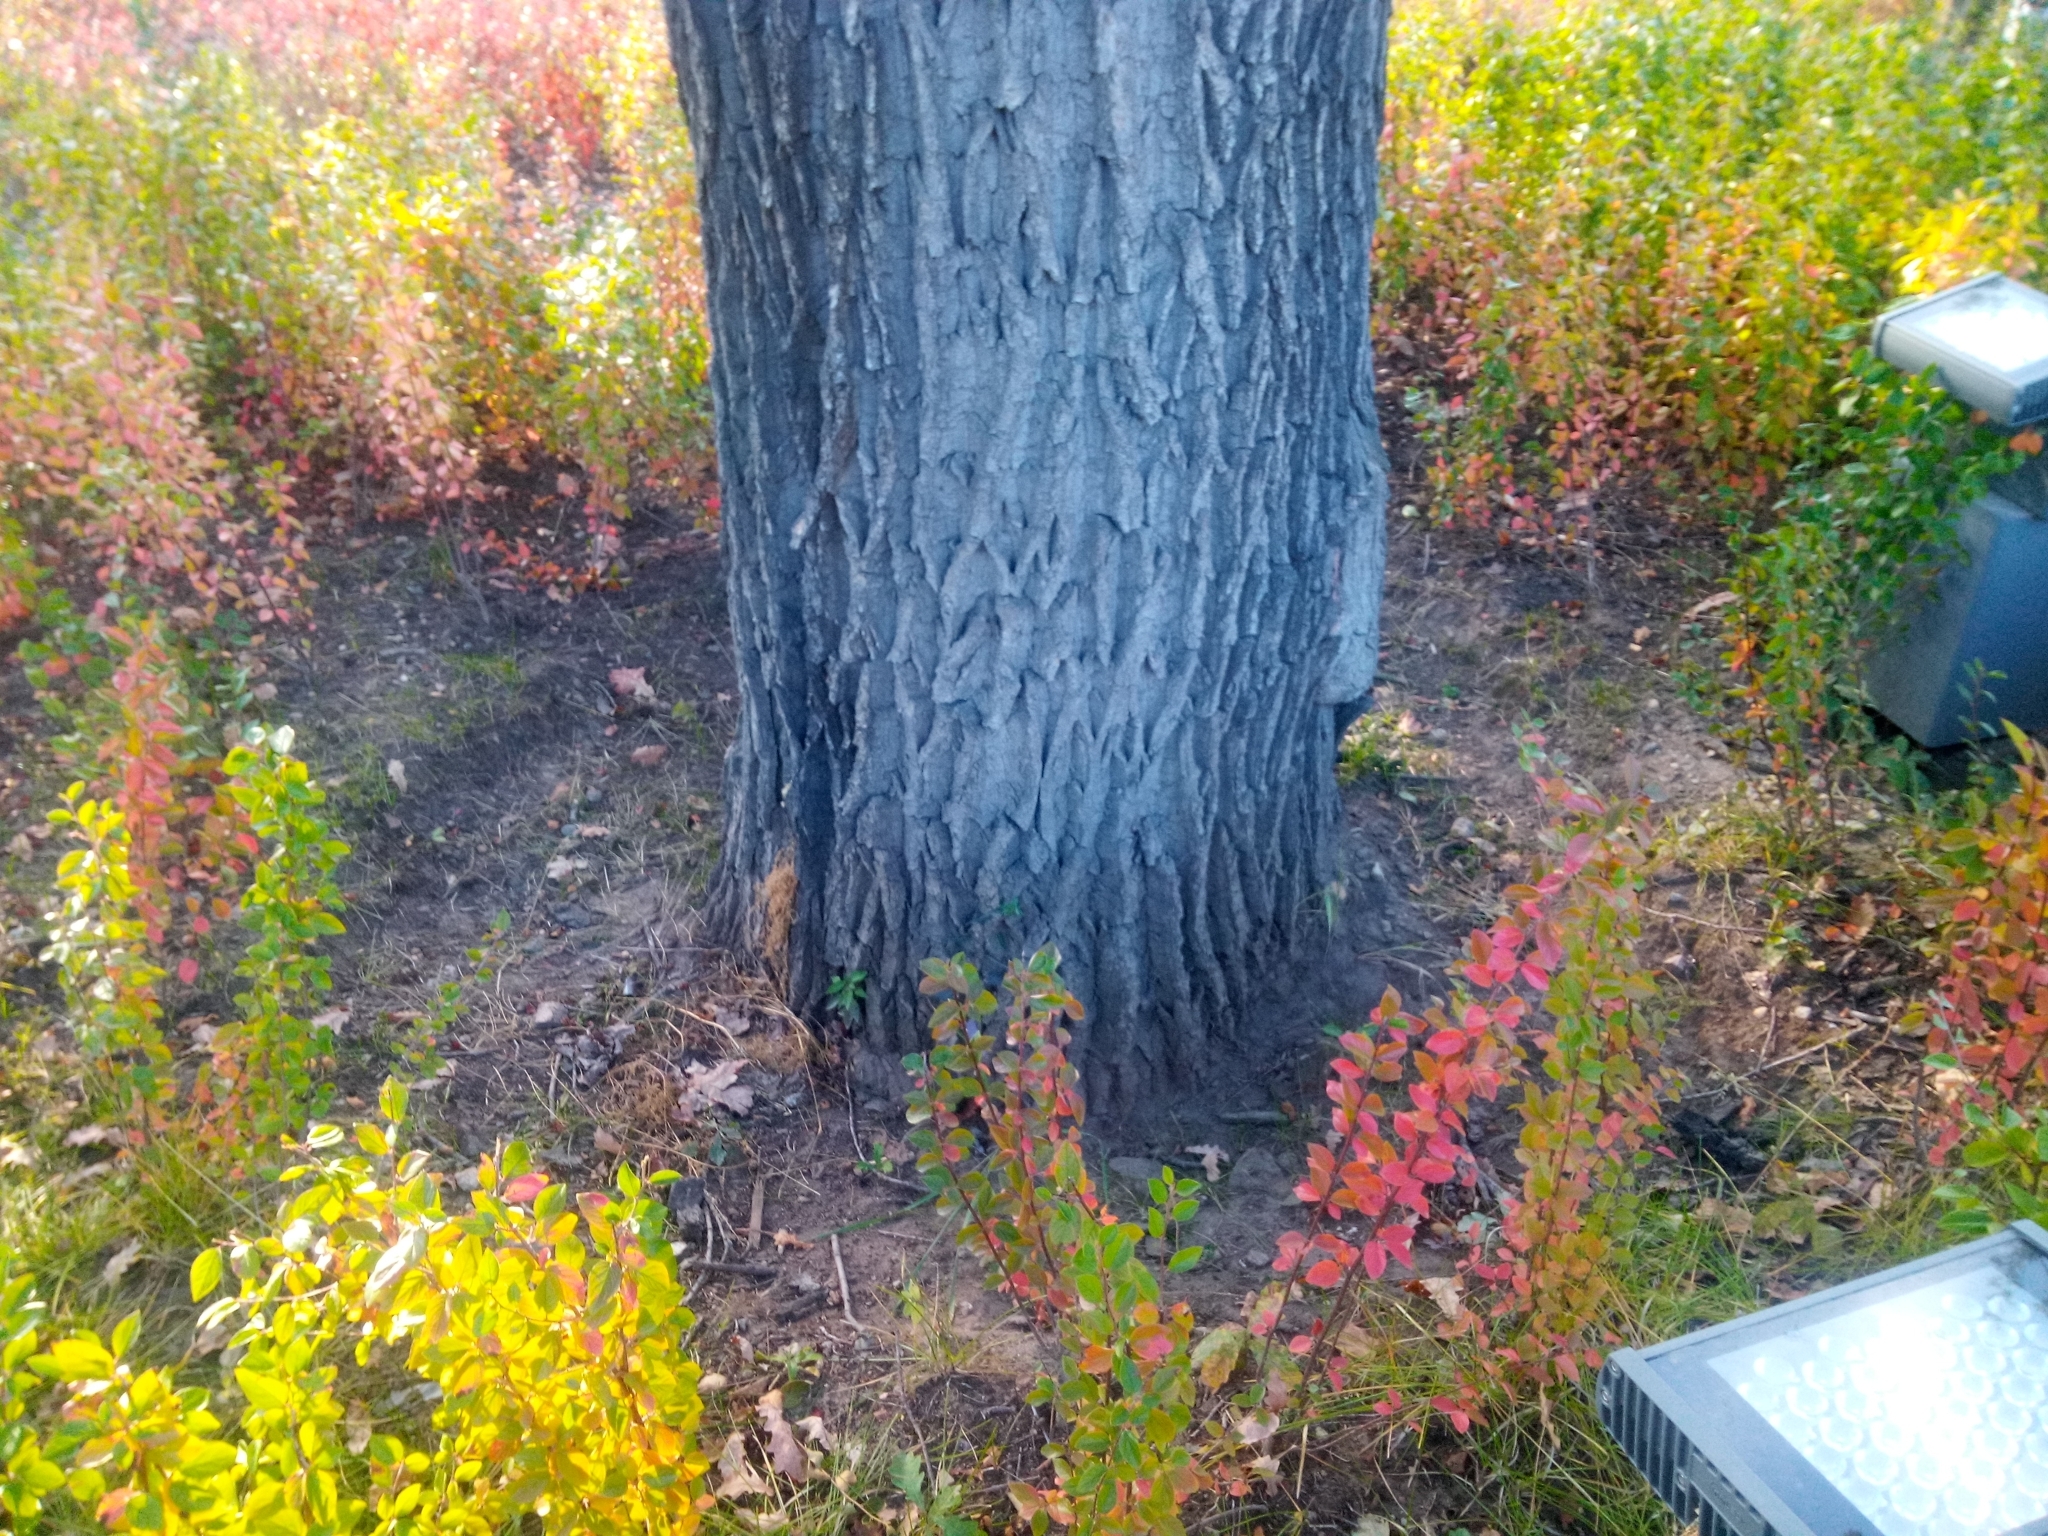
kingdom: Plantae
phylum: Tracheophyta
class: Magnoliopsida
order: Fagales
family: Fagaceae
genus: Quercus
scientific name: Quercus robur
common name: Pedunculate oak
